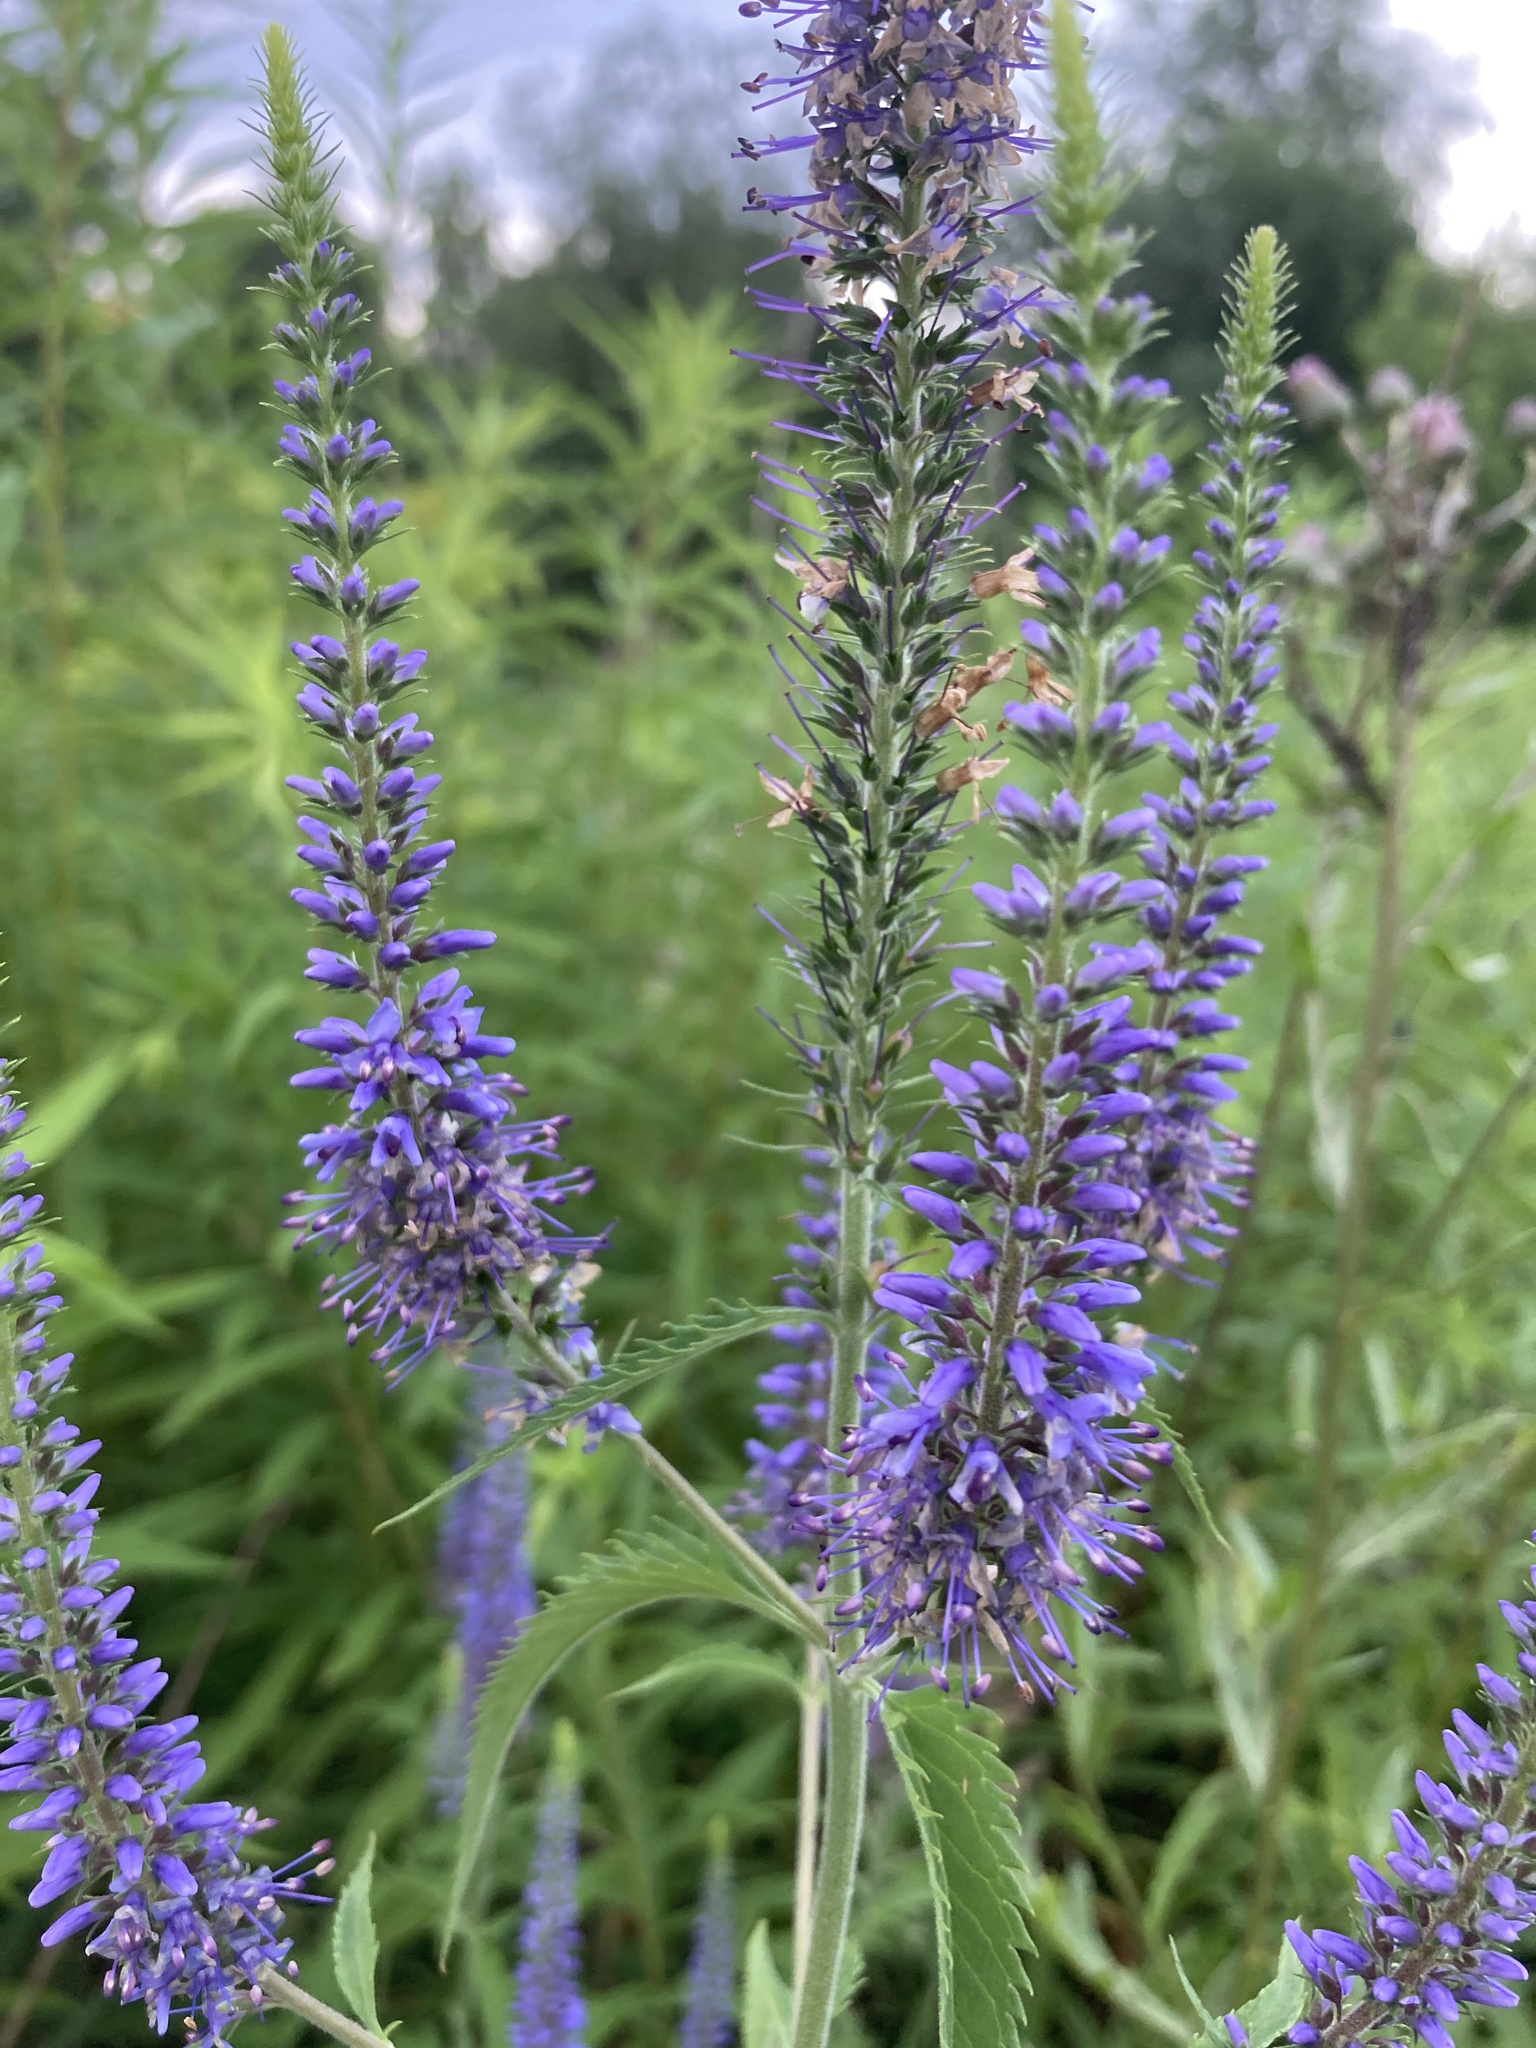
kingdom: Plantae
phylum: Tracheophyta
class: Magnoliopsida
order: Lamiales
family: Plantaginaceae
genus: Veronica
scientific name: Veronica longifolia
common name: Garden speedwell
